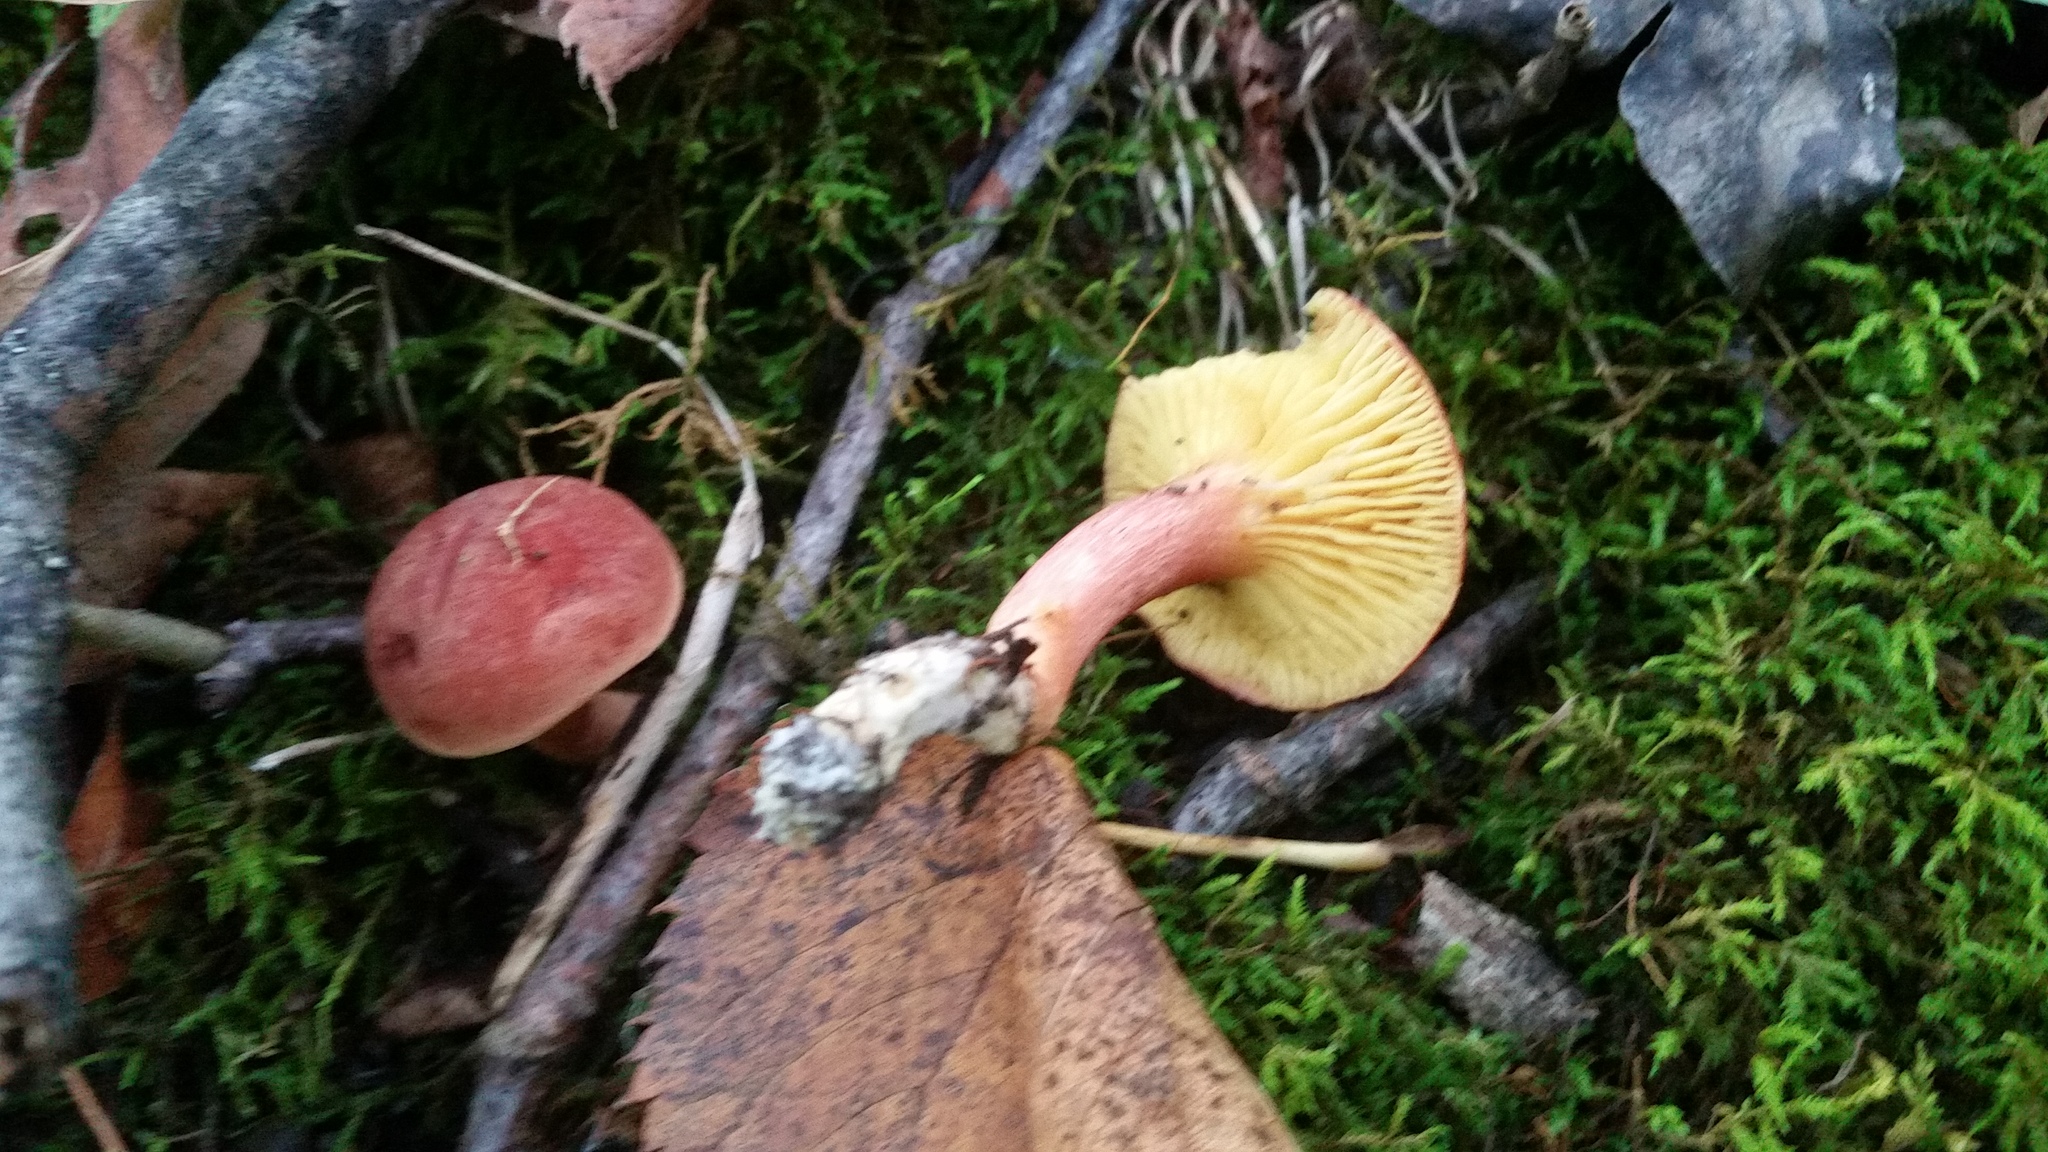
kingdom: Fungi
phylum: Basidiomycota
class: Agaricomycetes
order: Boletales
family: Boletaceae
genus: Phylloporus
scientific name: Phylloporus leucomycelinus
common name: Gilled bolete
